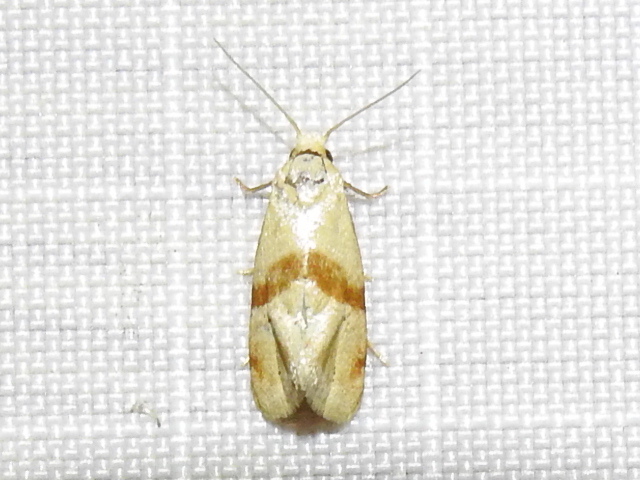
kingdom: Animalia
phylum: Arthropoda
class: Insecta
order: Lepidoptera
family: Tortricidae
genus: Cochylis
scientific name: Cochylis caulocatax
